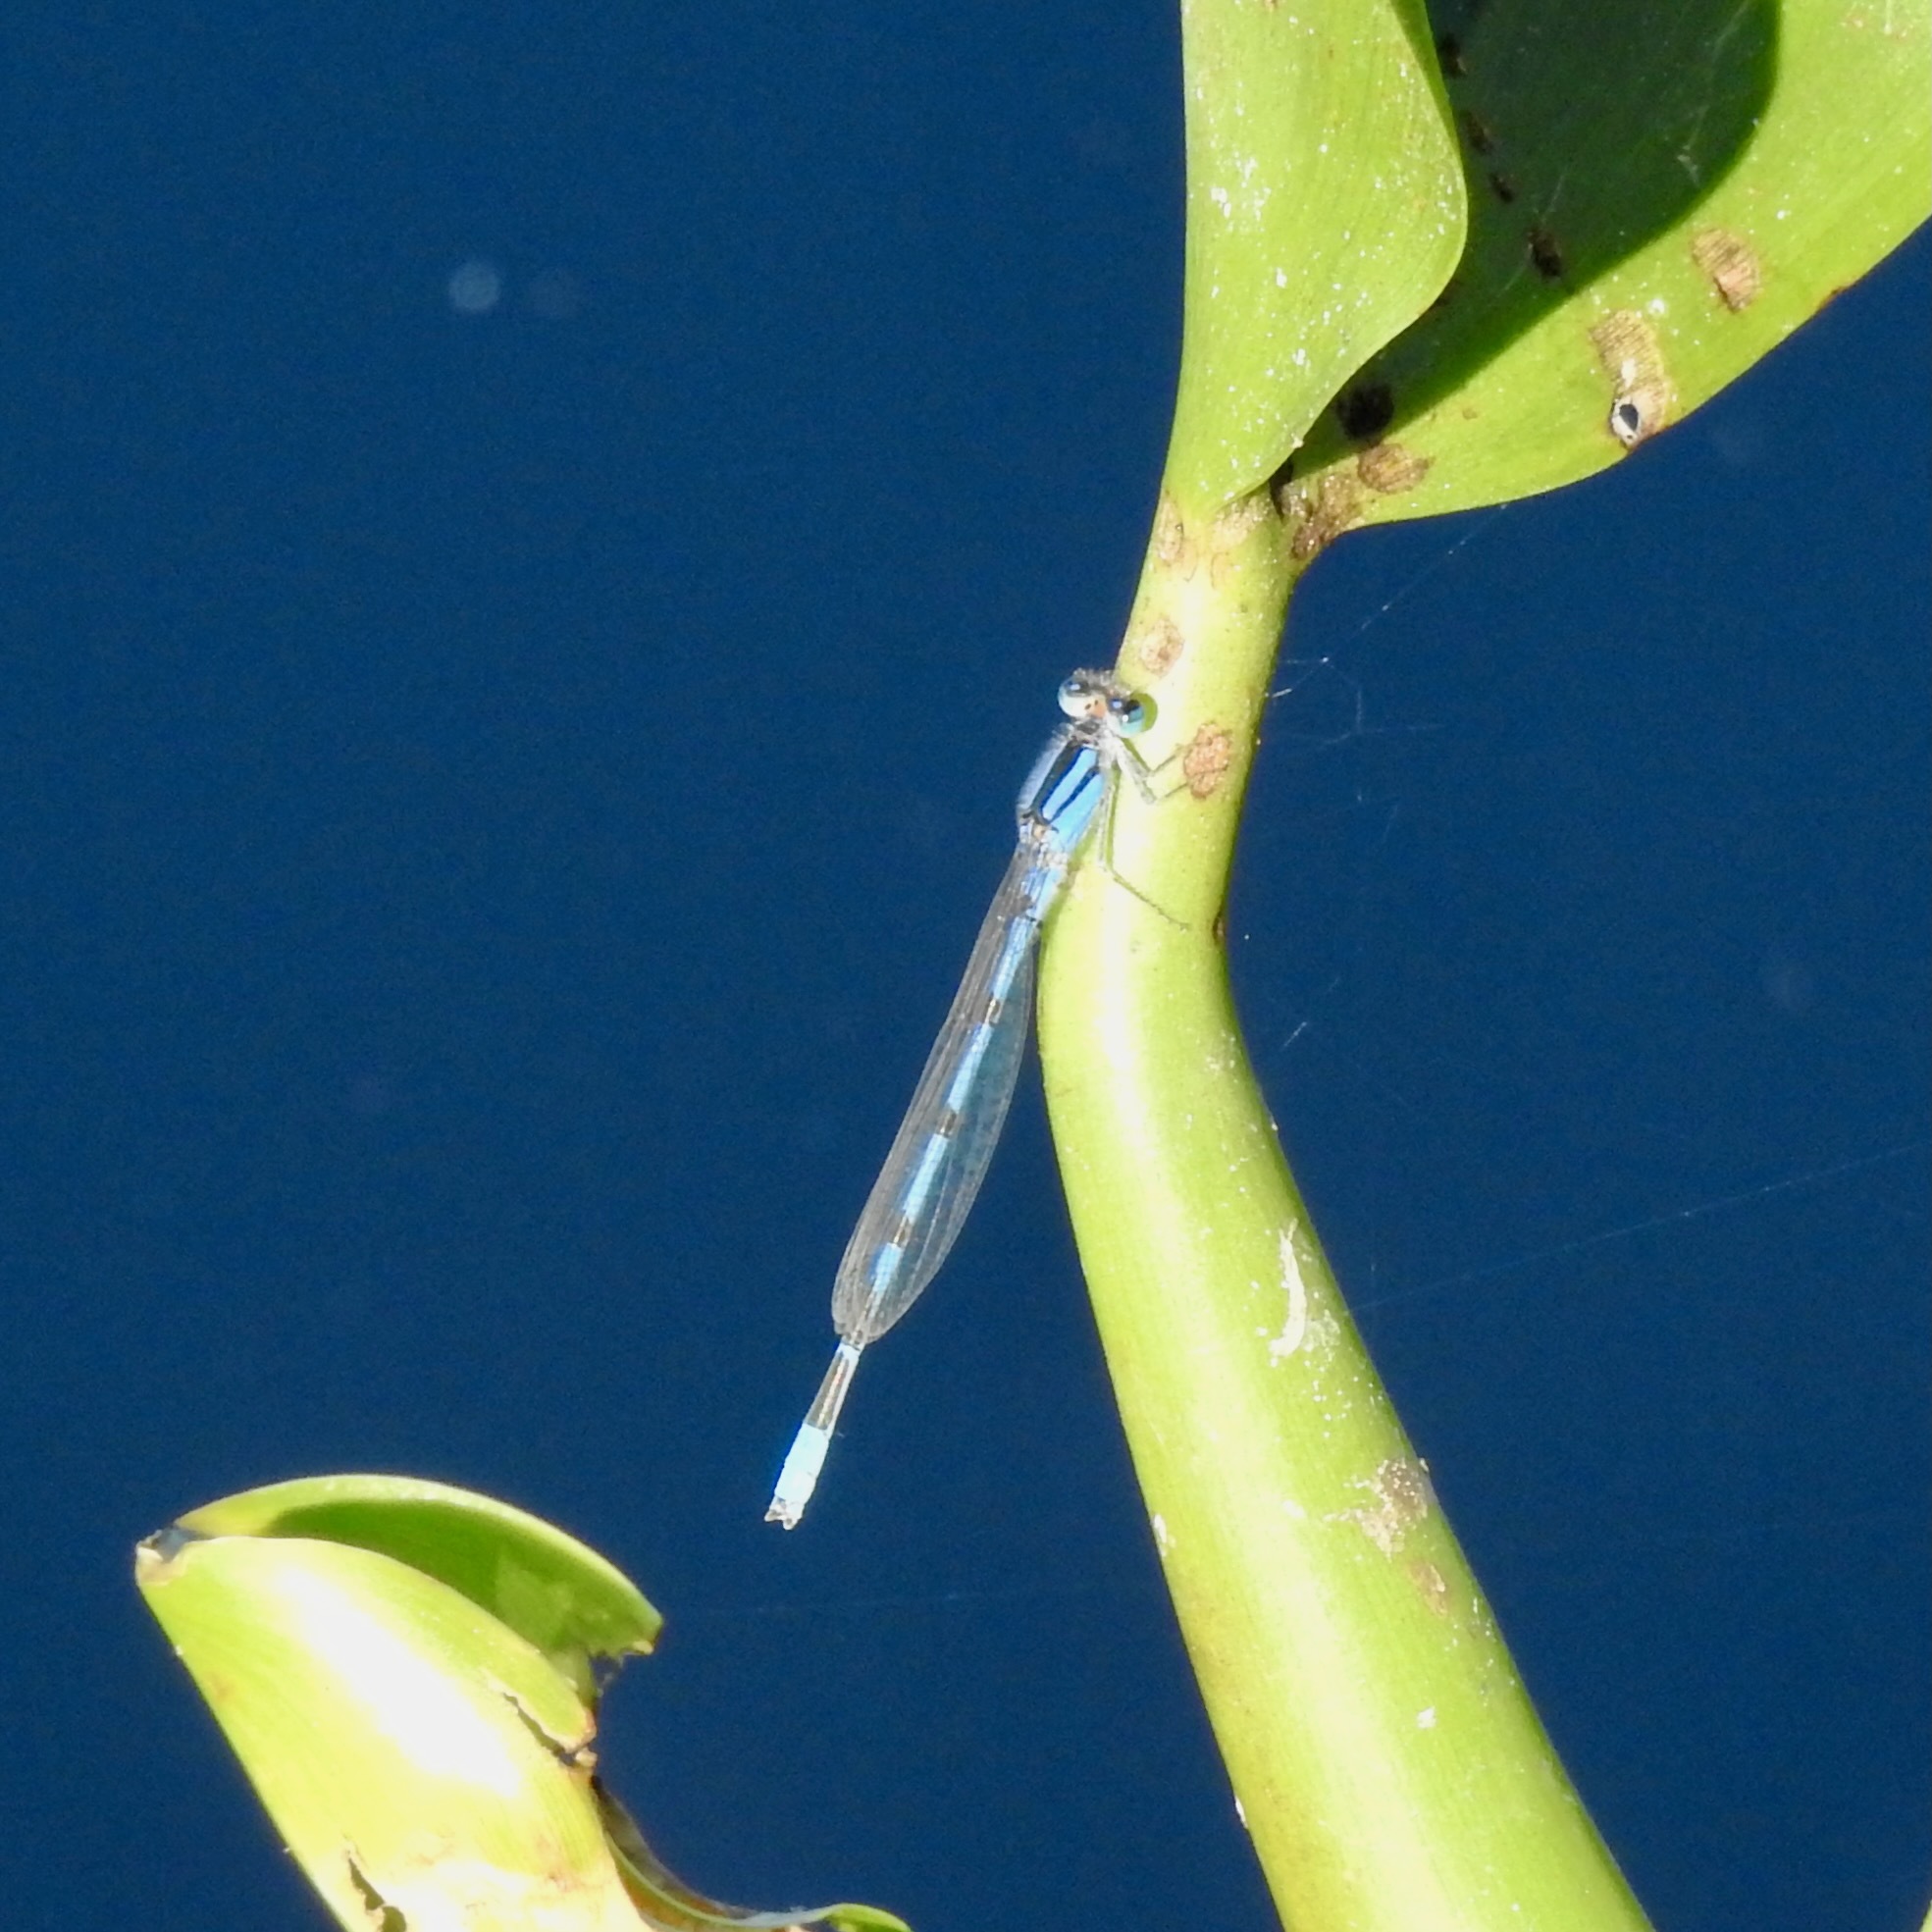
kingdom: Animalia
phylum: Arthropoda
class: Insecta
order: Odonata
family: Coenagrionidae
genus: Enallagma
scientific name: Enallagma civile
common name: Damselfly
